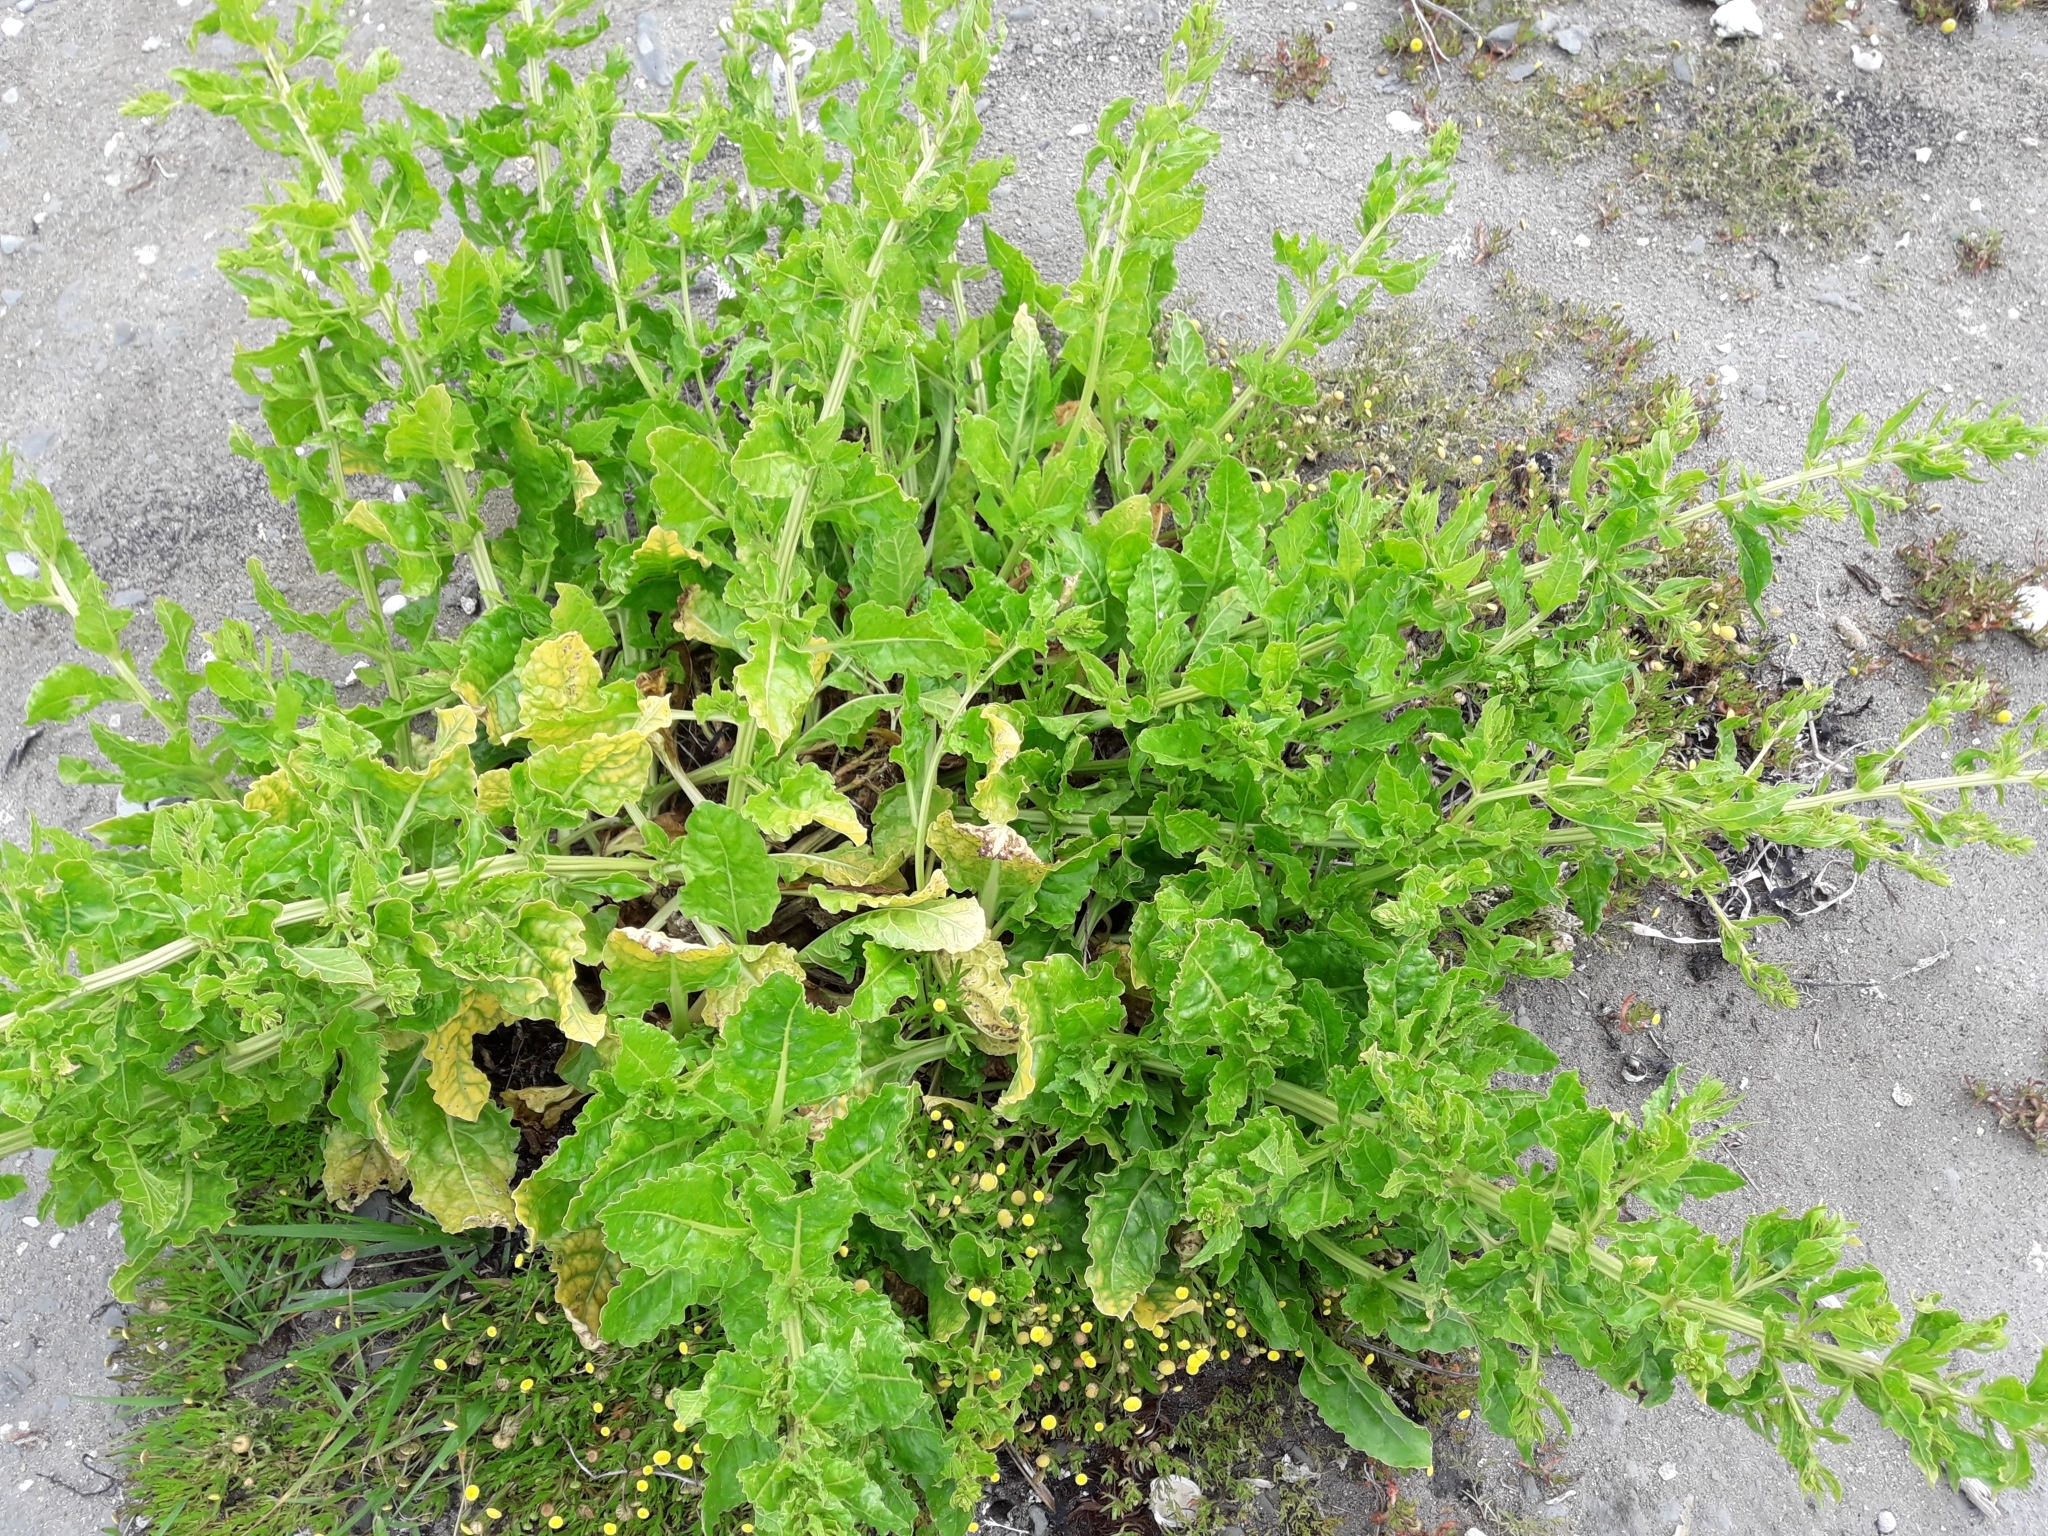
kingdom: Plantae
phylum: Tracheophyta
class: Magnoliopsida
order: Caryophyllales
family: Amaranthaceae
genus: Beta
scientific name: Beta vulgaris
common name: Beet
